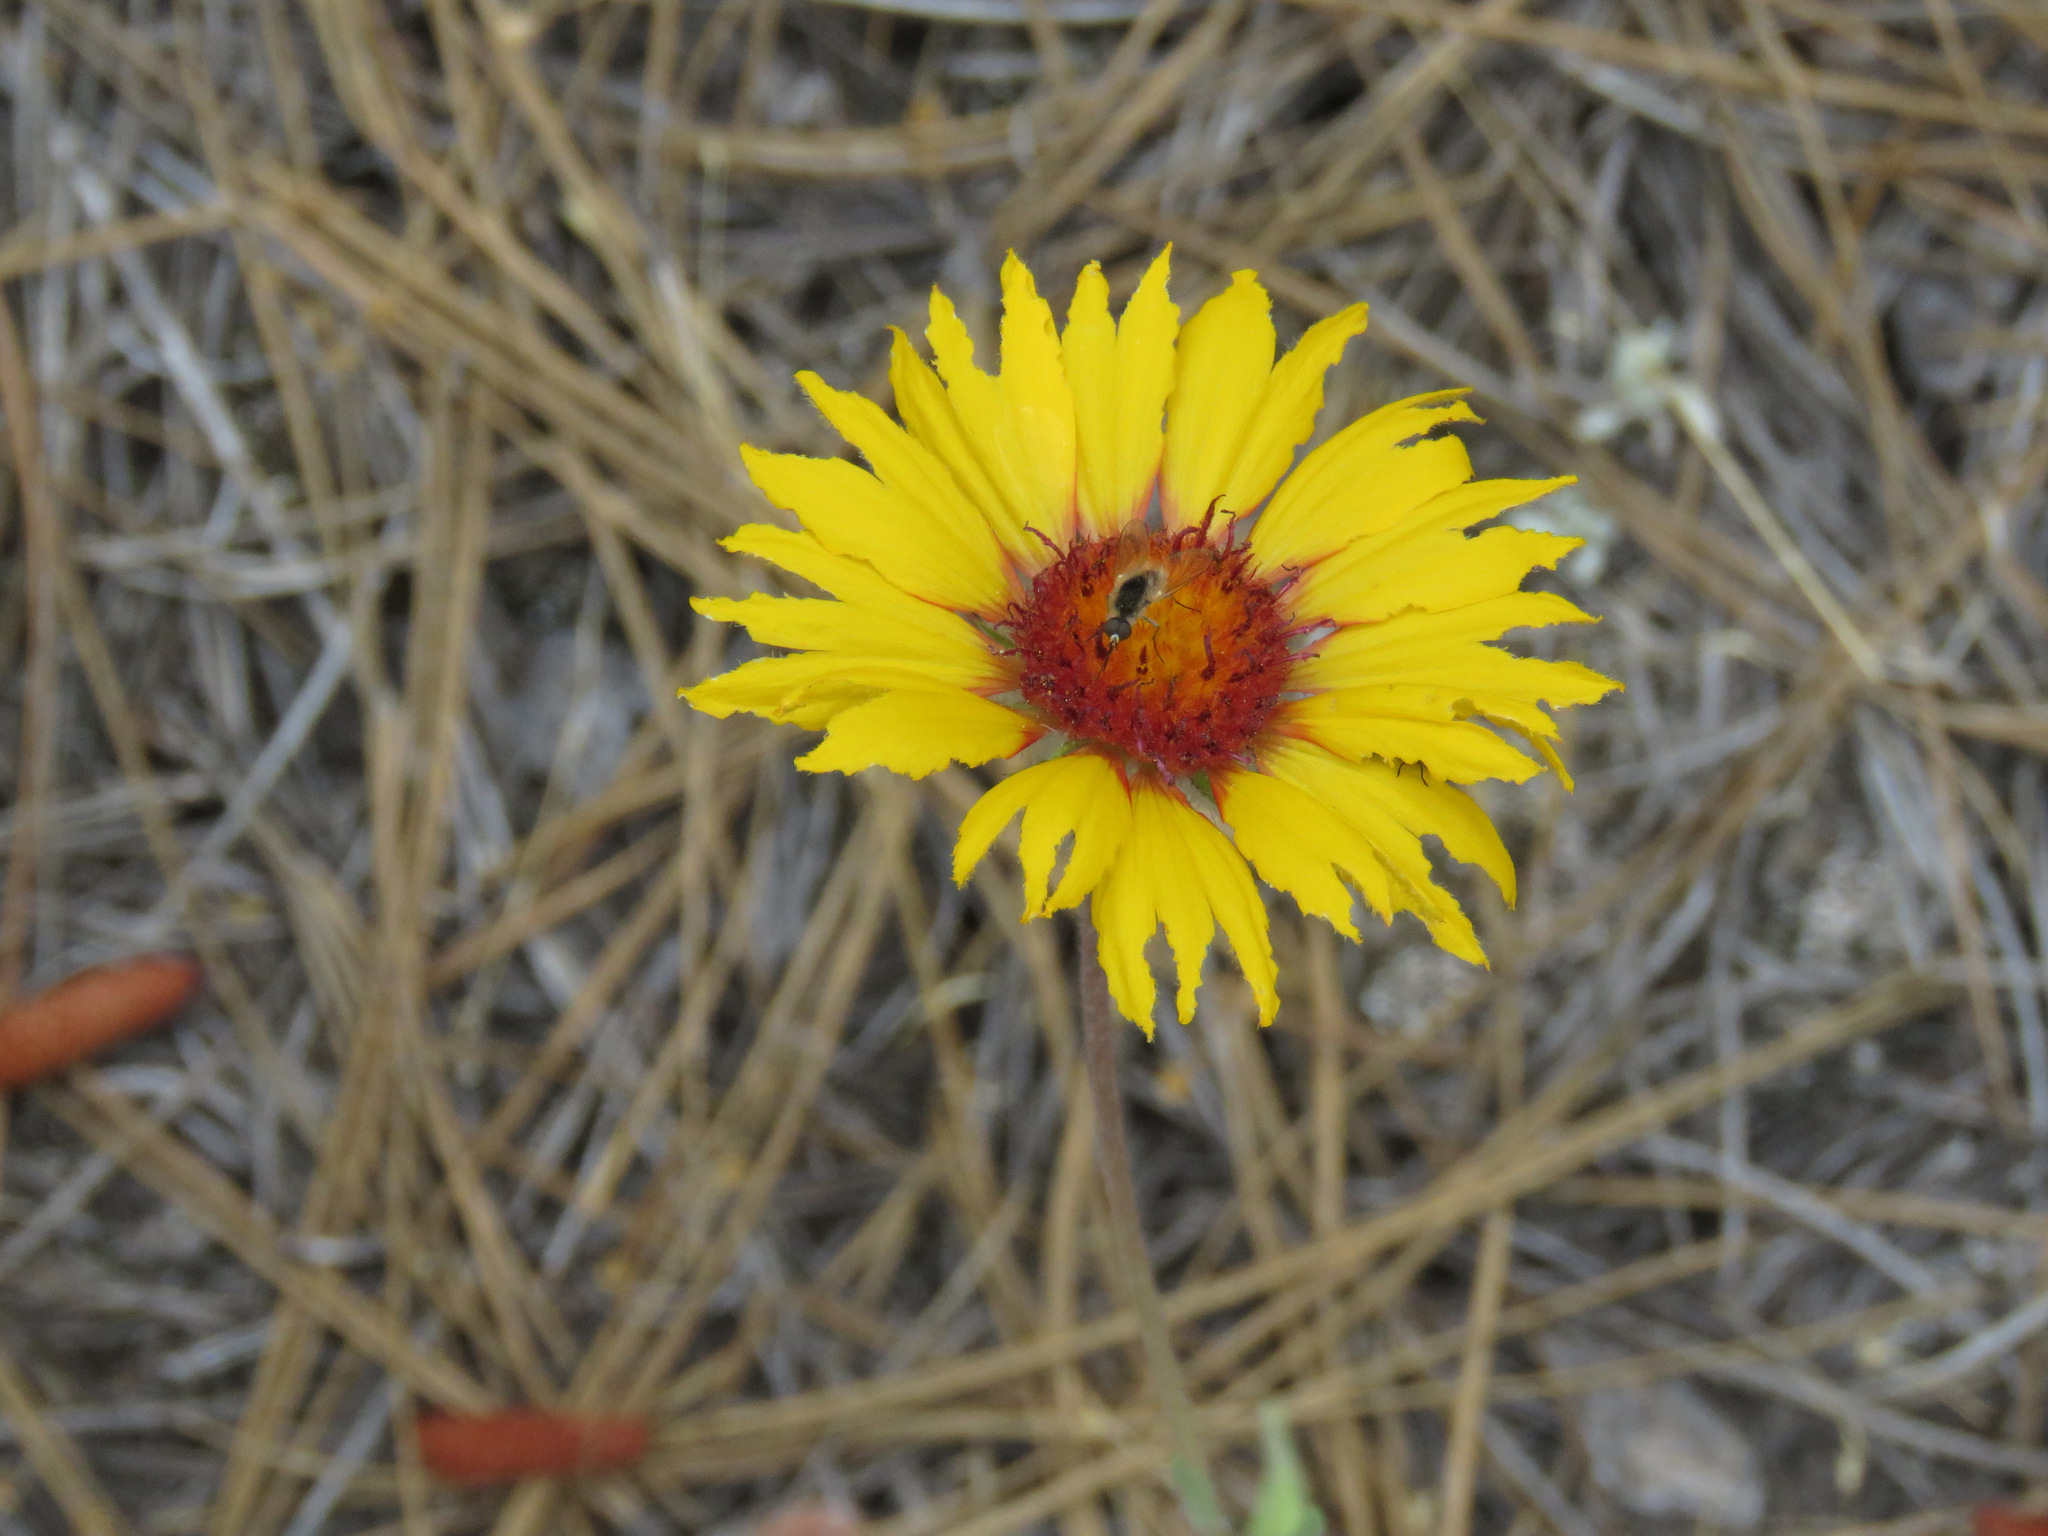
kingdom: Plantae
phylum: Tracheophyta
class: Magnoliopsida
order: Asterales
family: Asteraceae
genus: Gaillardia
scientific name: Gaillardia aristata
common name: Blanket-flower
